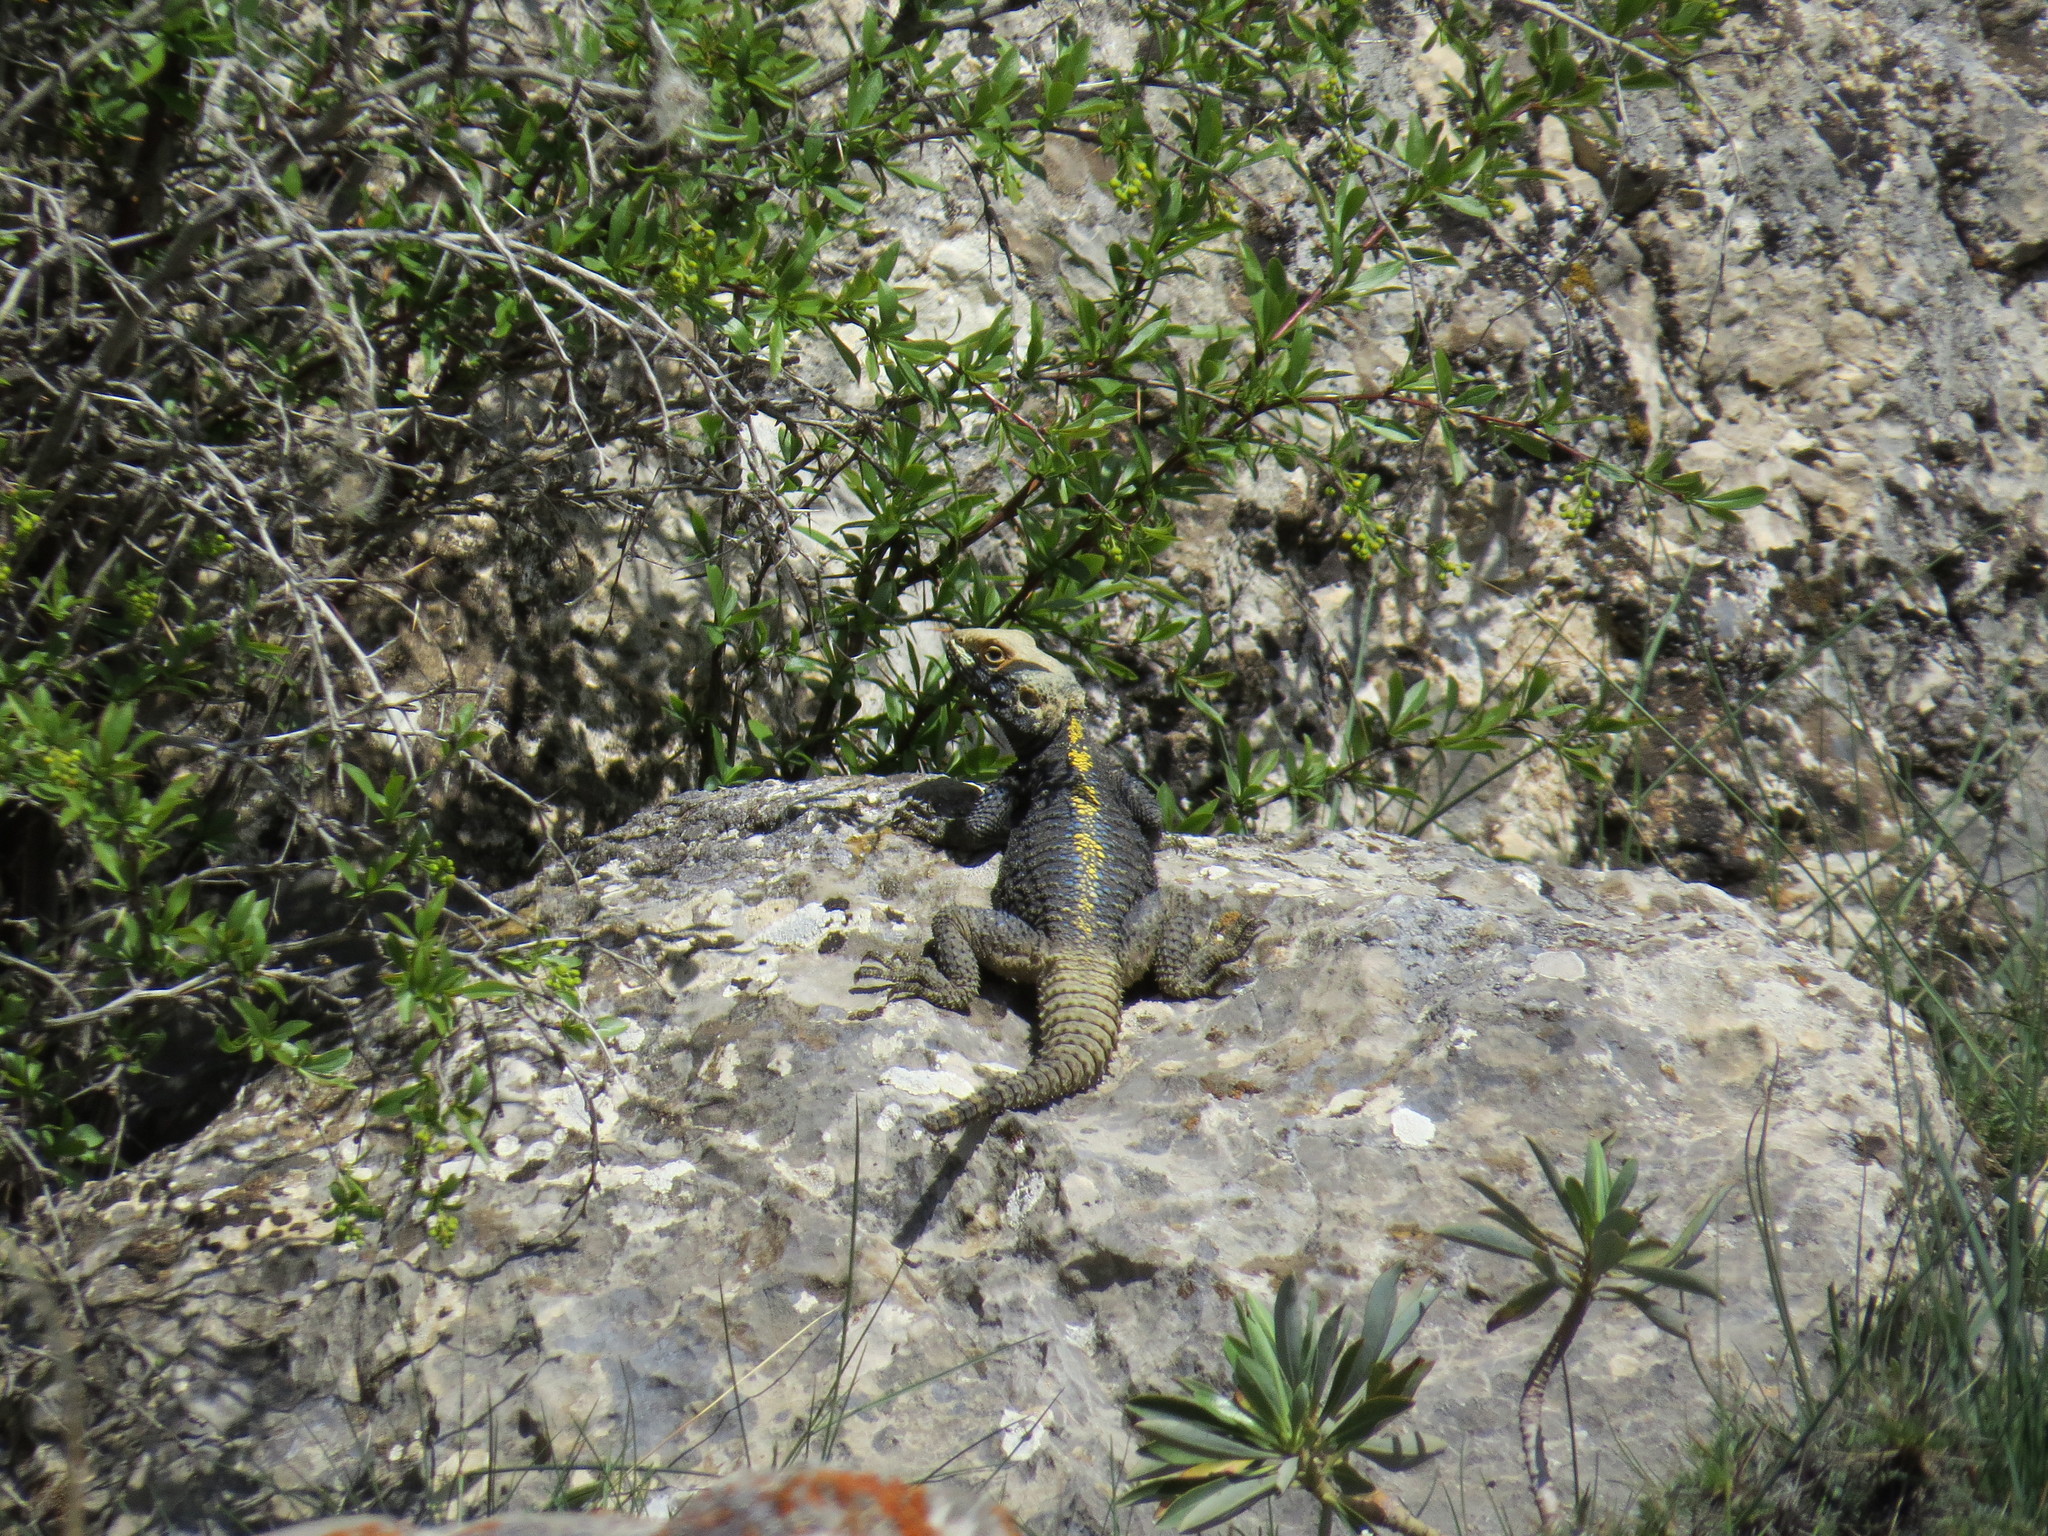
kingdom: Animalia
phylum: Chordata
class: Squamata
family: Agamidae
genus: Stellagama
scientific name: Stellagama stellio
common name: Starred agama
